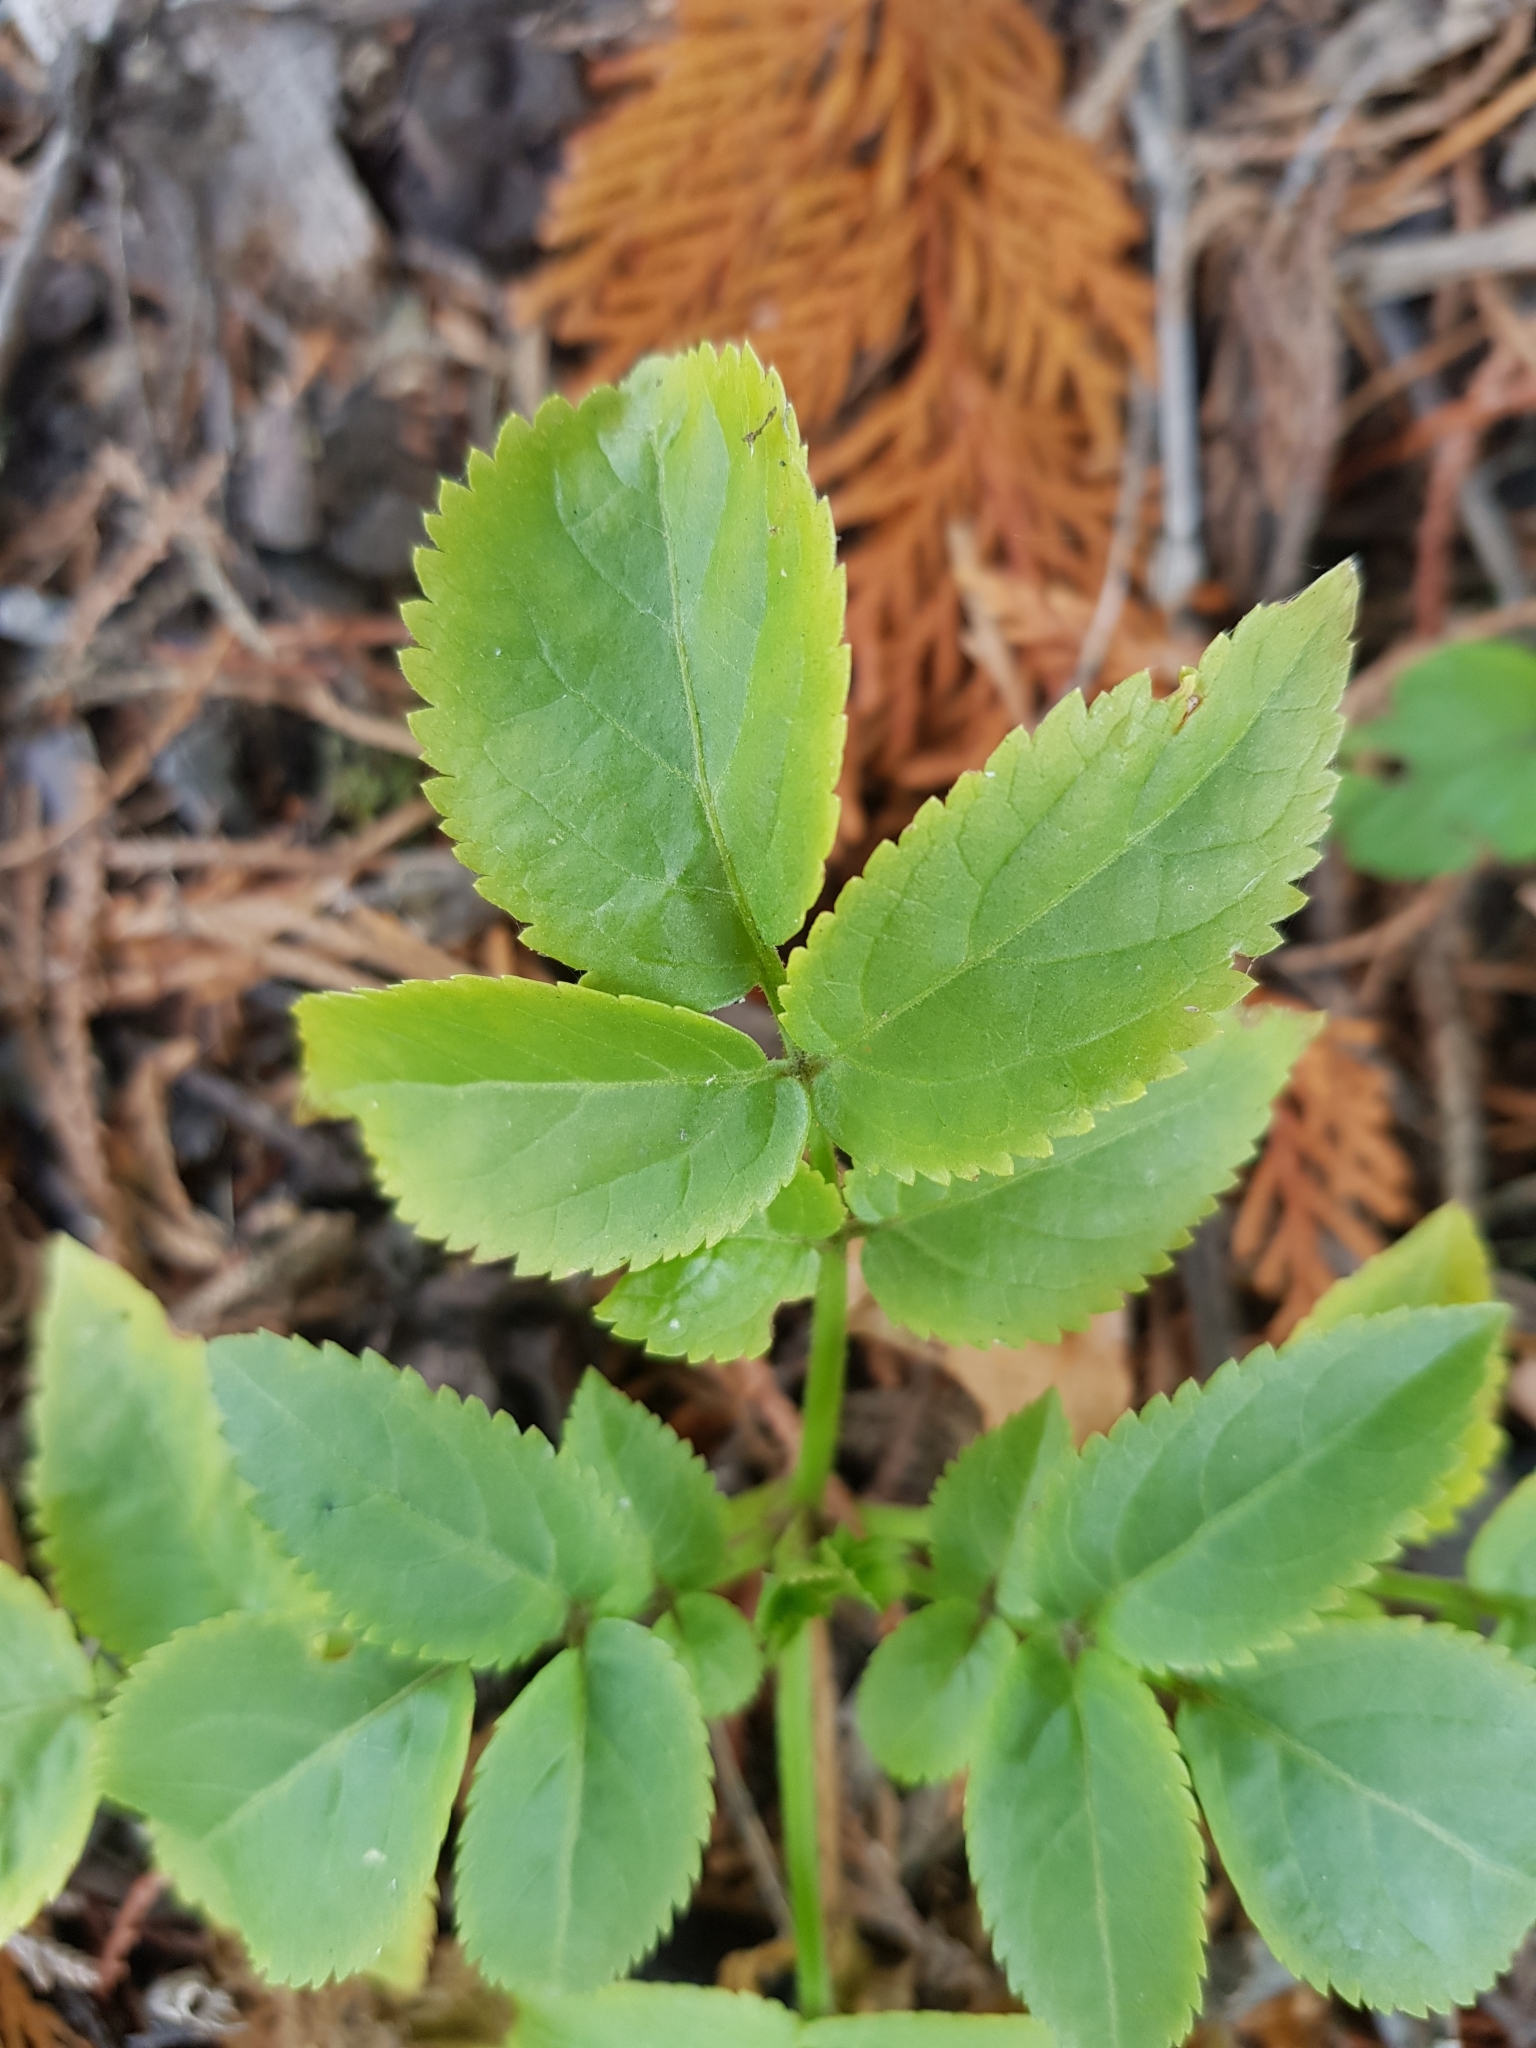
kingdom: Plantae
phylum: Tracheophyta
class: Magnoliopsida
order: Dipsacales
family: Viburnaceae
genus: Sambucus
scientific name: Sambucus nigra
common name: Elder
